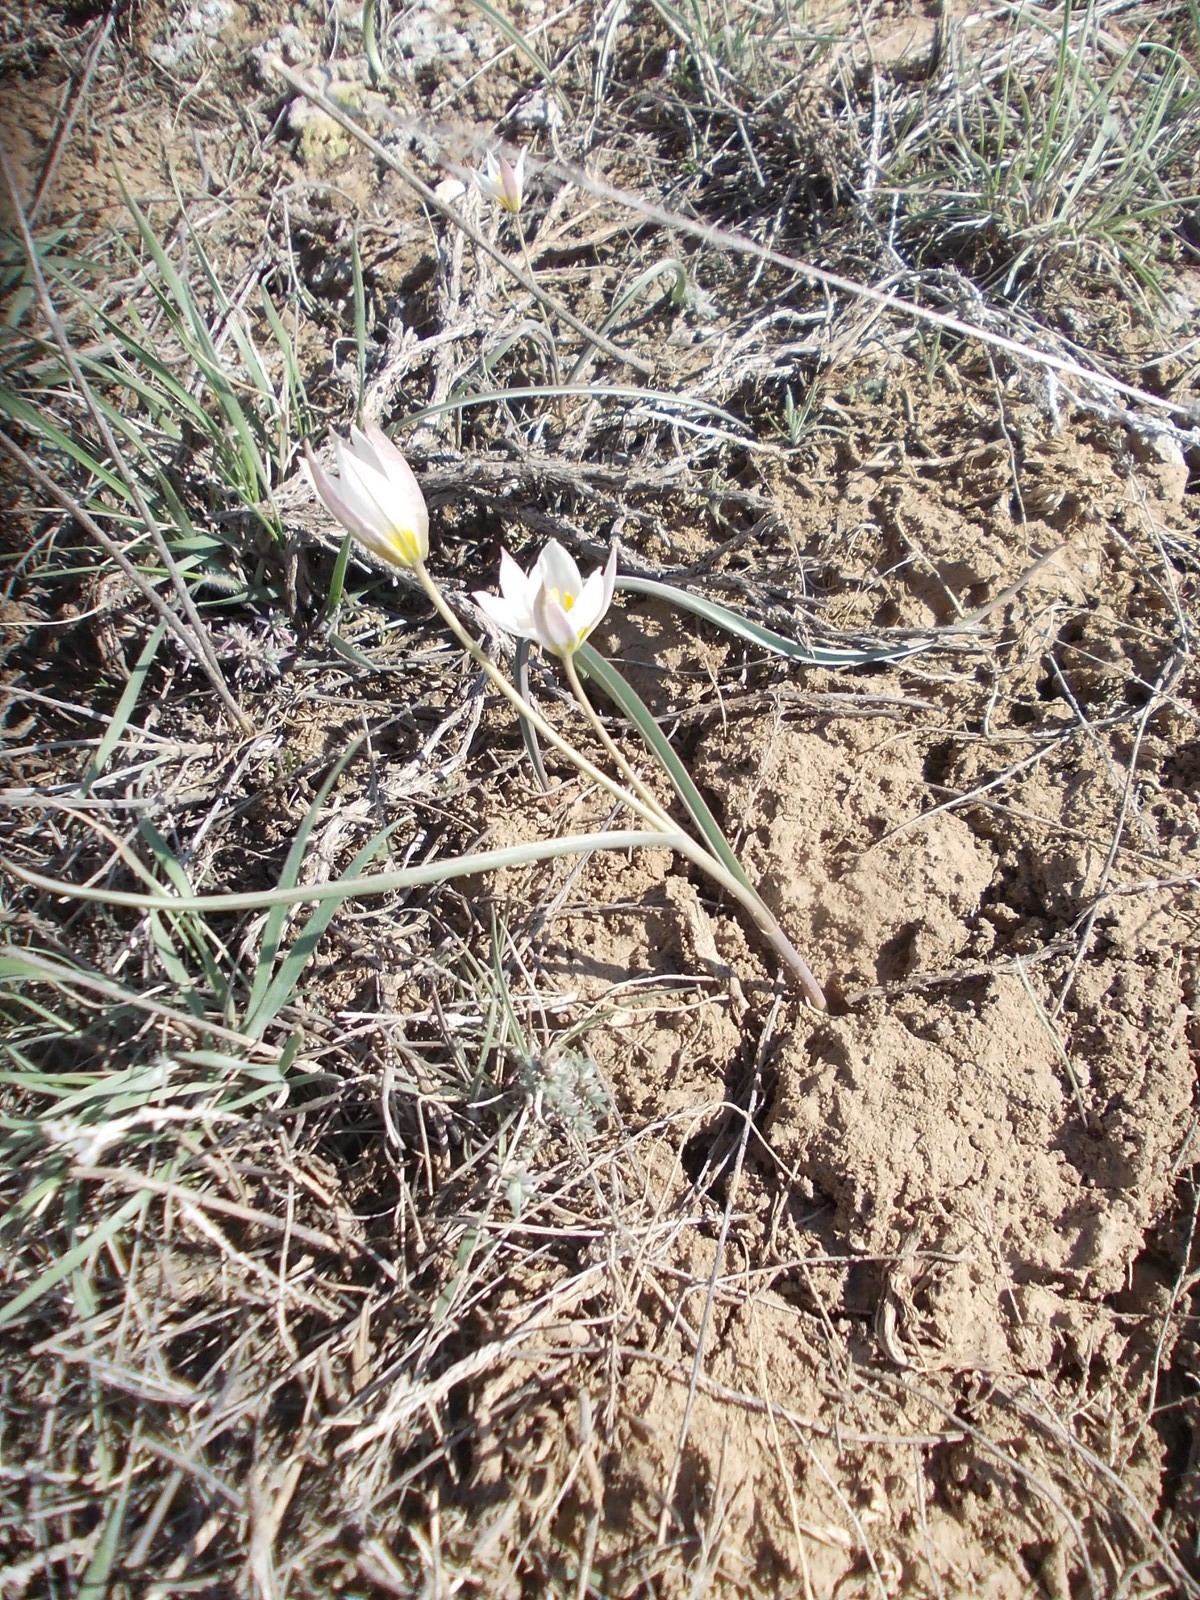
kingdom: Plantae
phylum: Tracheophyta
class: Liliopsida
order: Liliales
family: Liliaceae
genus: Tulipa
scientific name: Tulipa biflora
